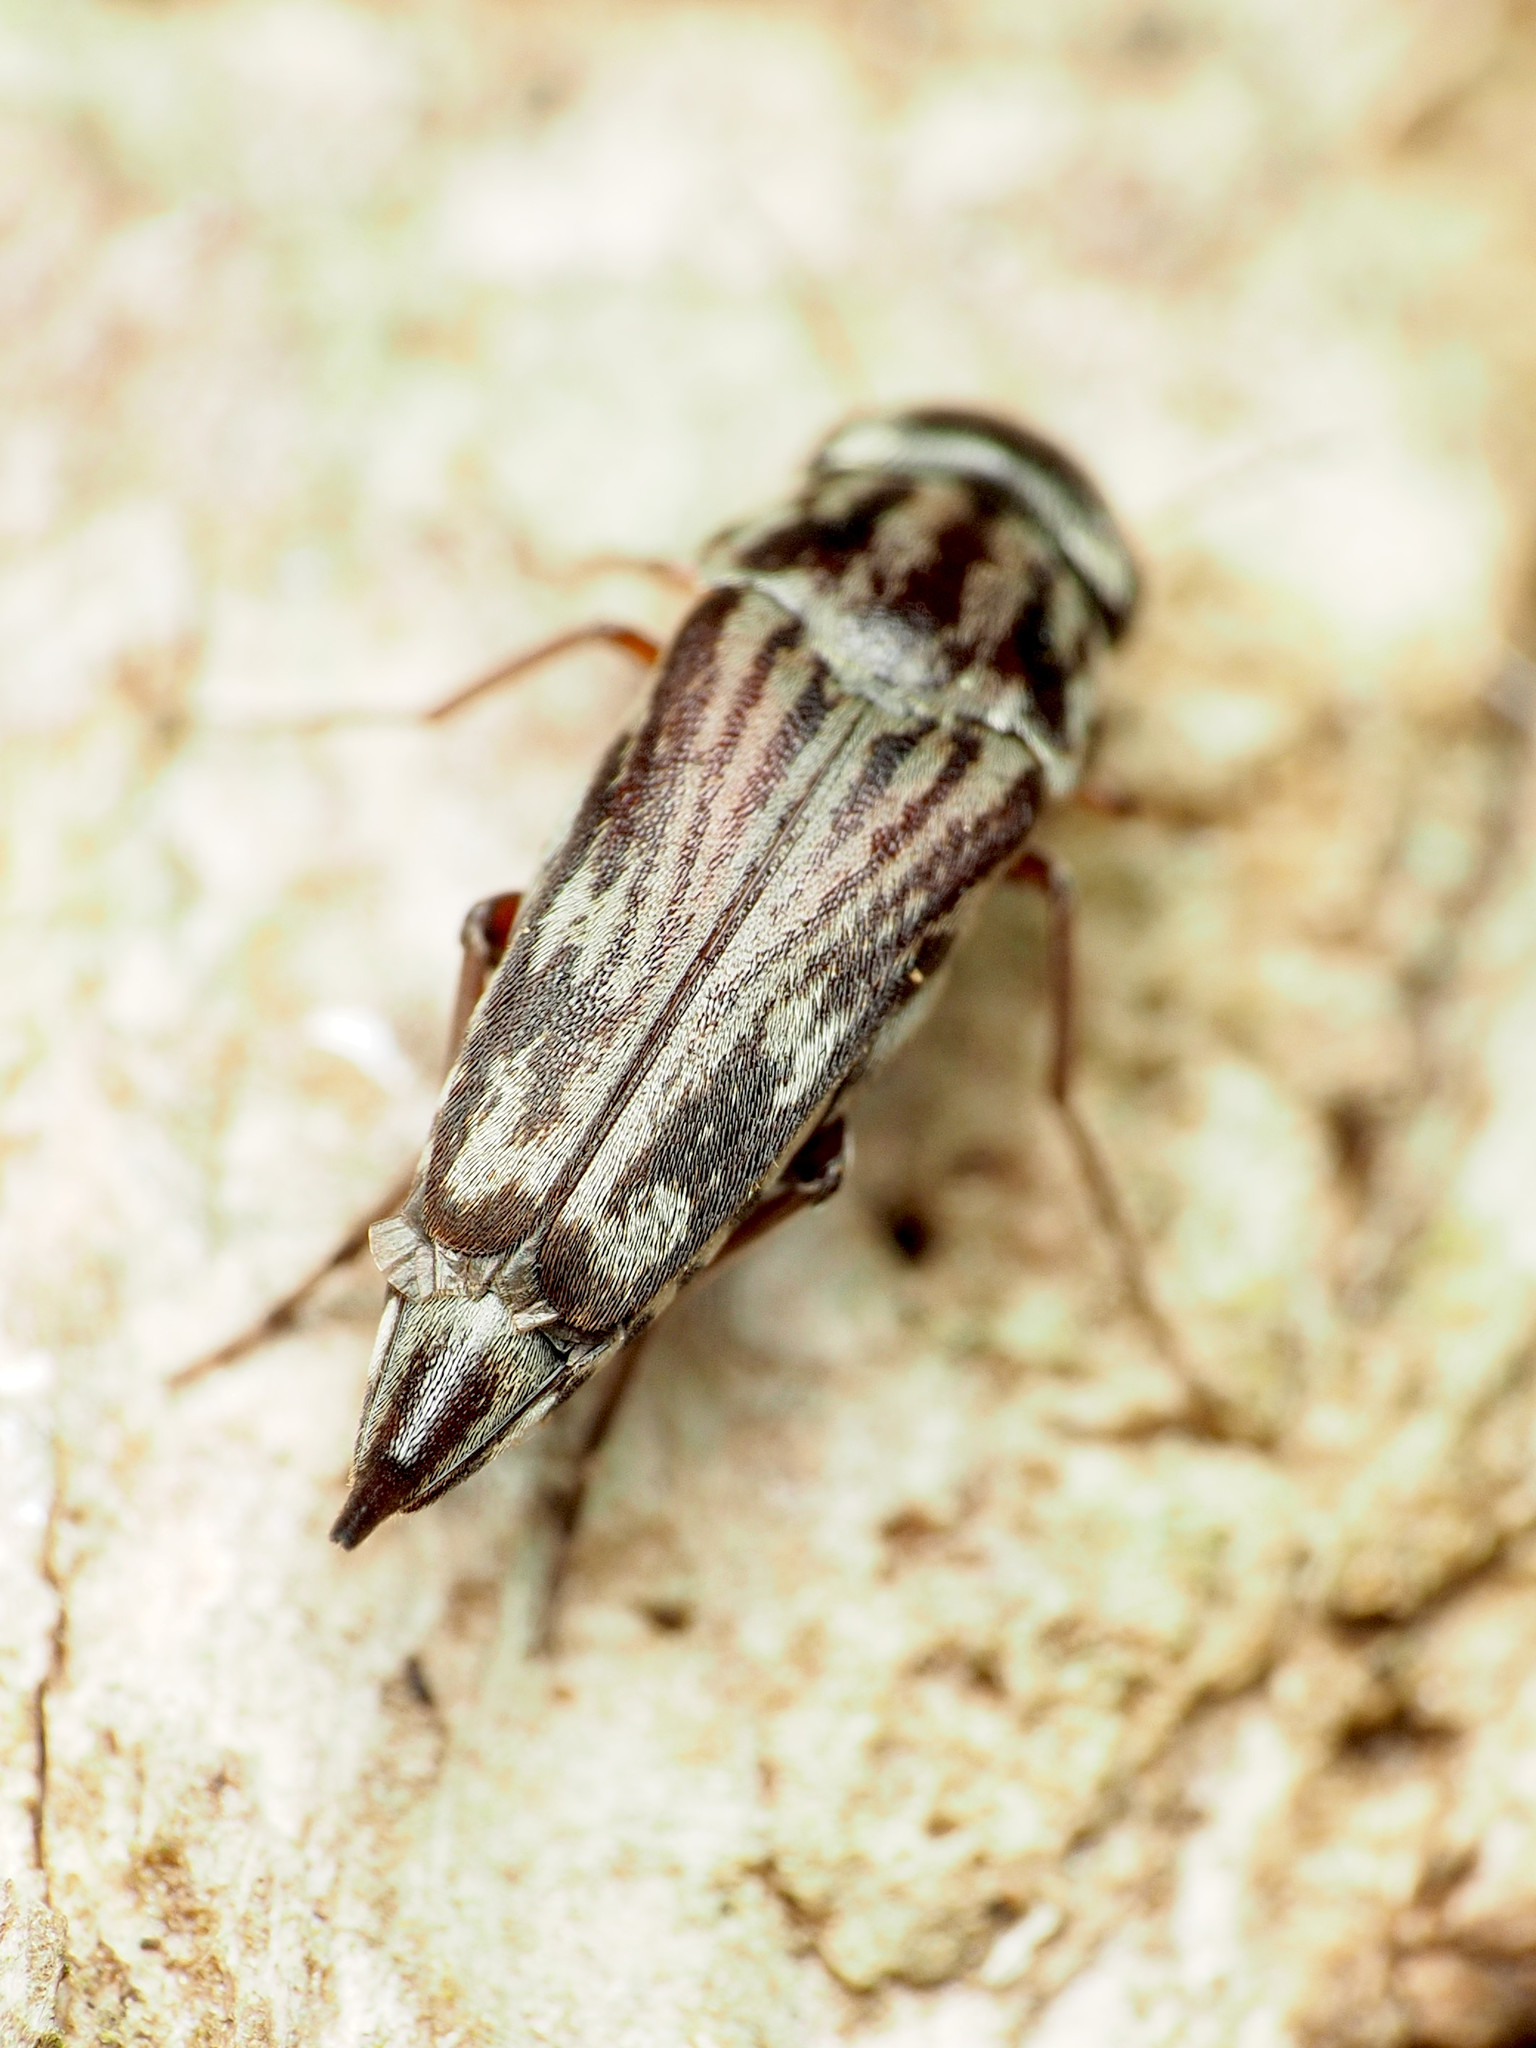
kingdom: Animalia
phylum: Arthropoda
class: Insecta
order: Coleoptera
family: Mordellidae
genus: Tomoxia
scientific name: Tomoxia lineella
